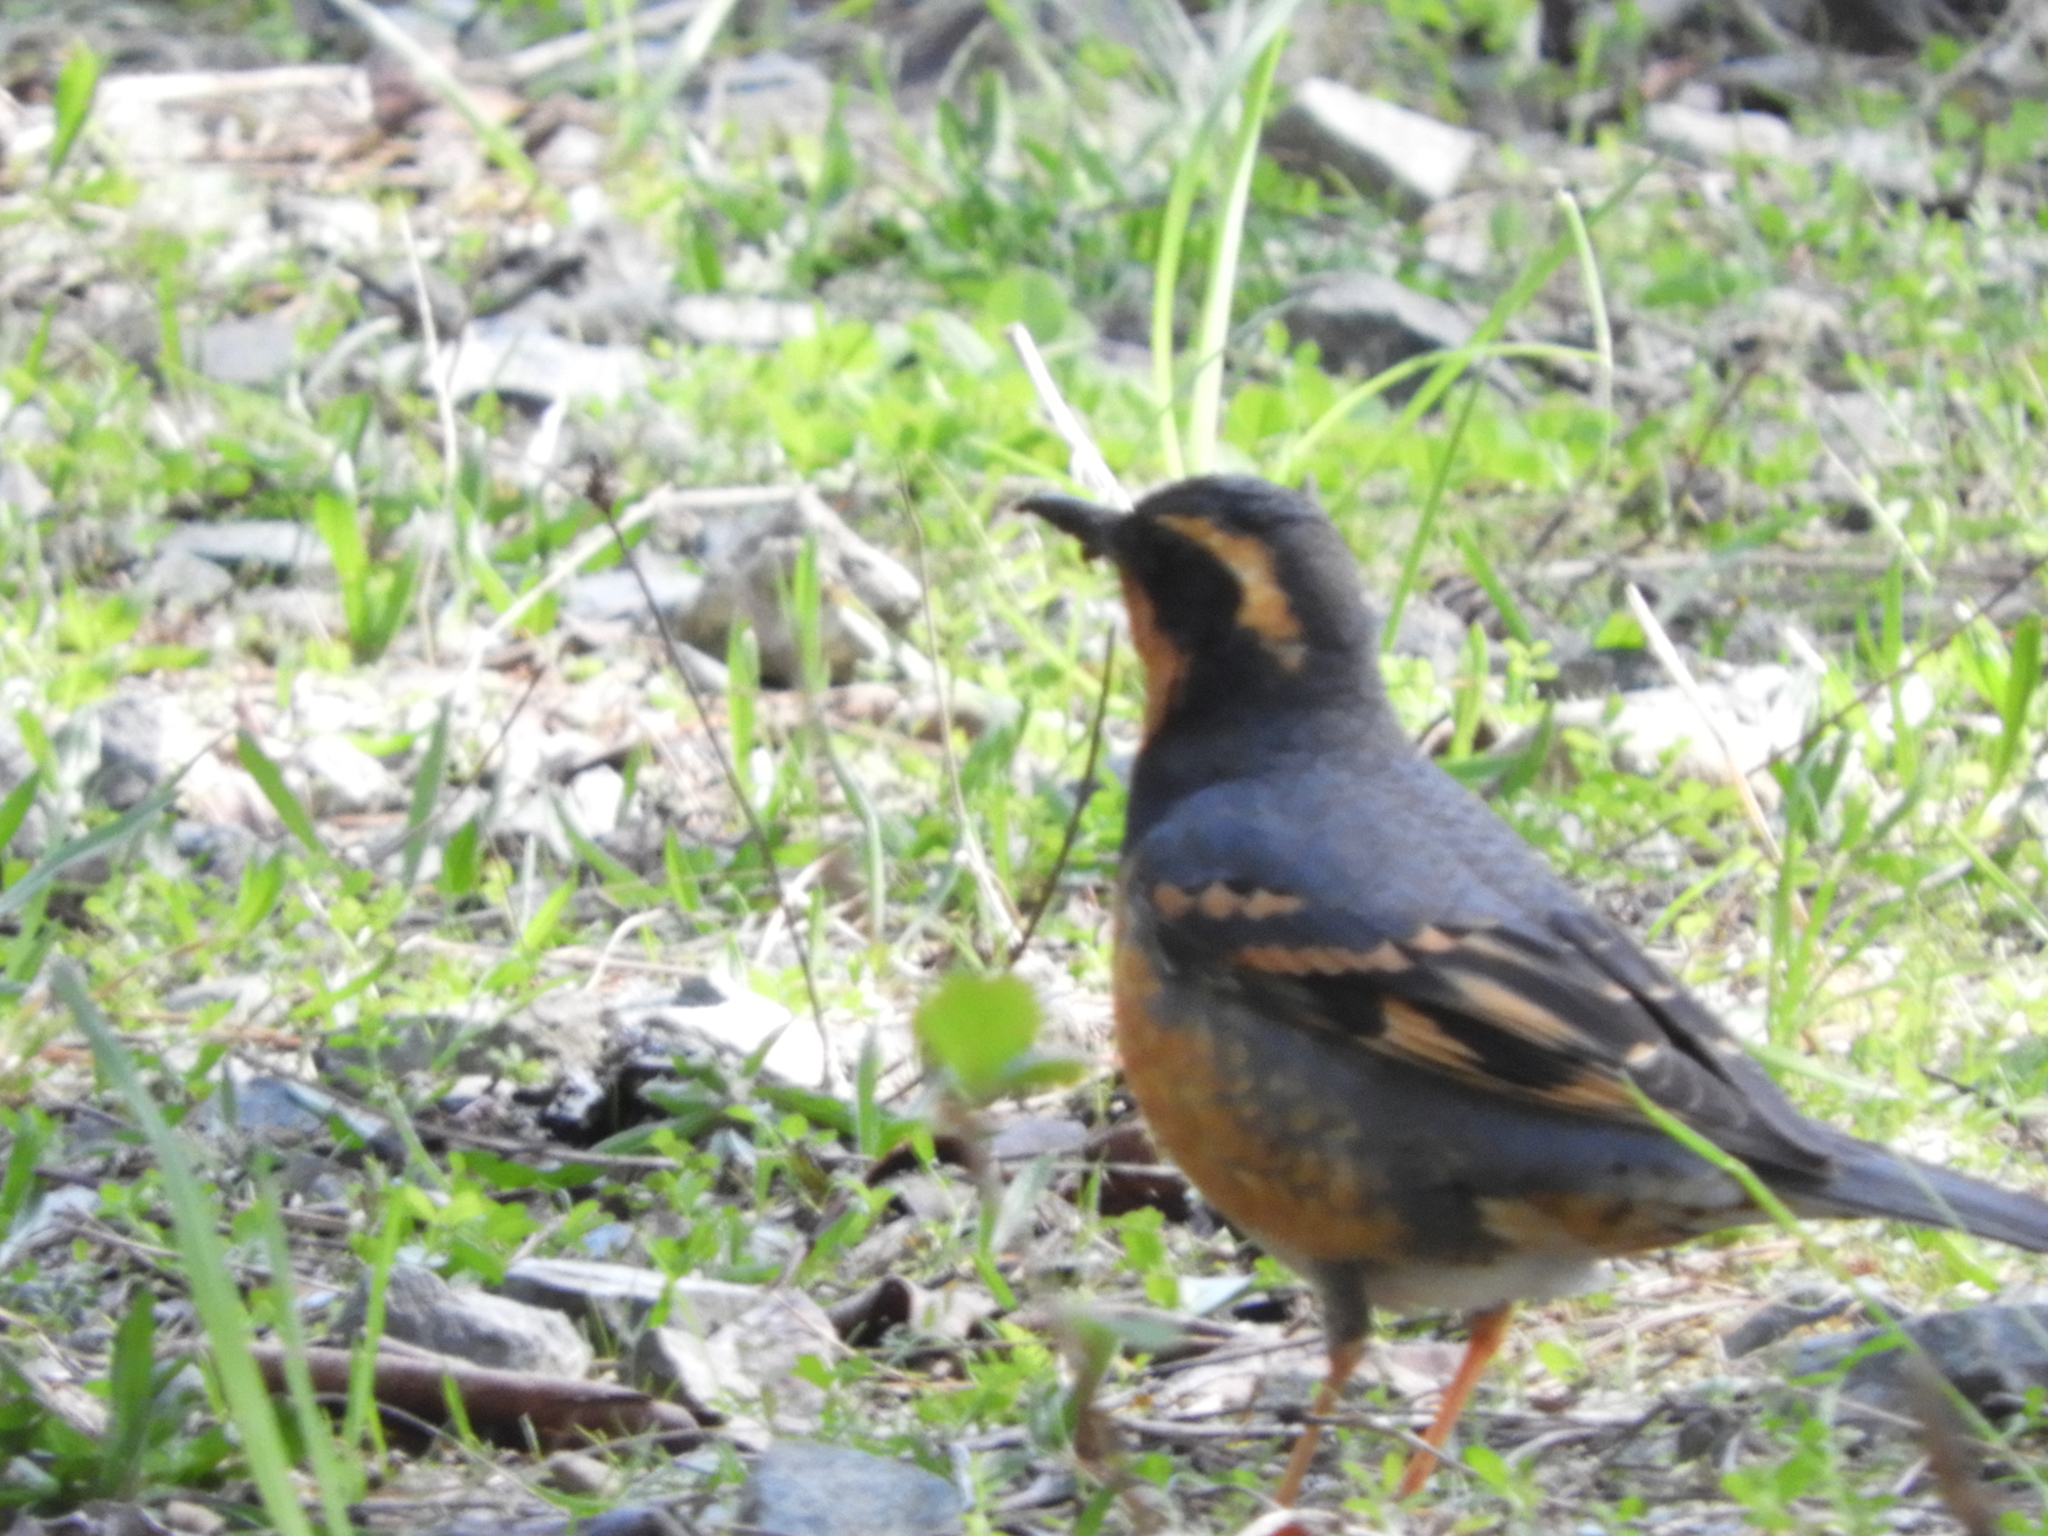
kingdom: Animalia
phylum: Chordata
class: Aves
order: Passeriformes
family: Turdidae
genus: Ixoreus
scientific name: Ixoreus naevius
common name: Varied thrush
